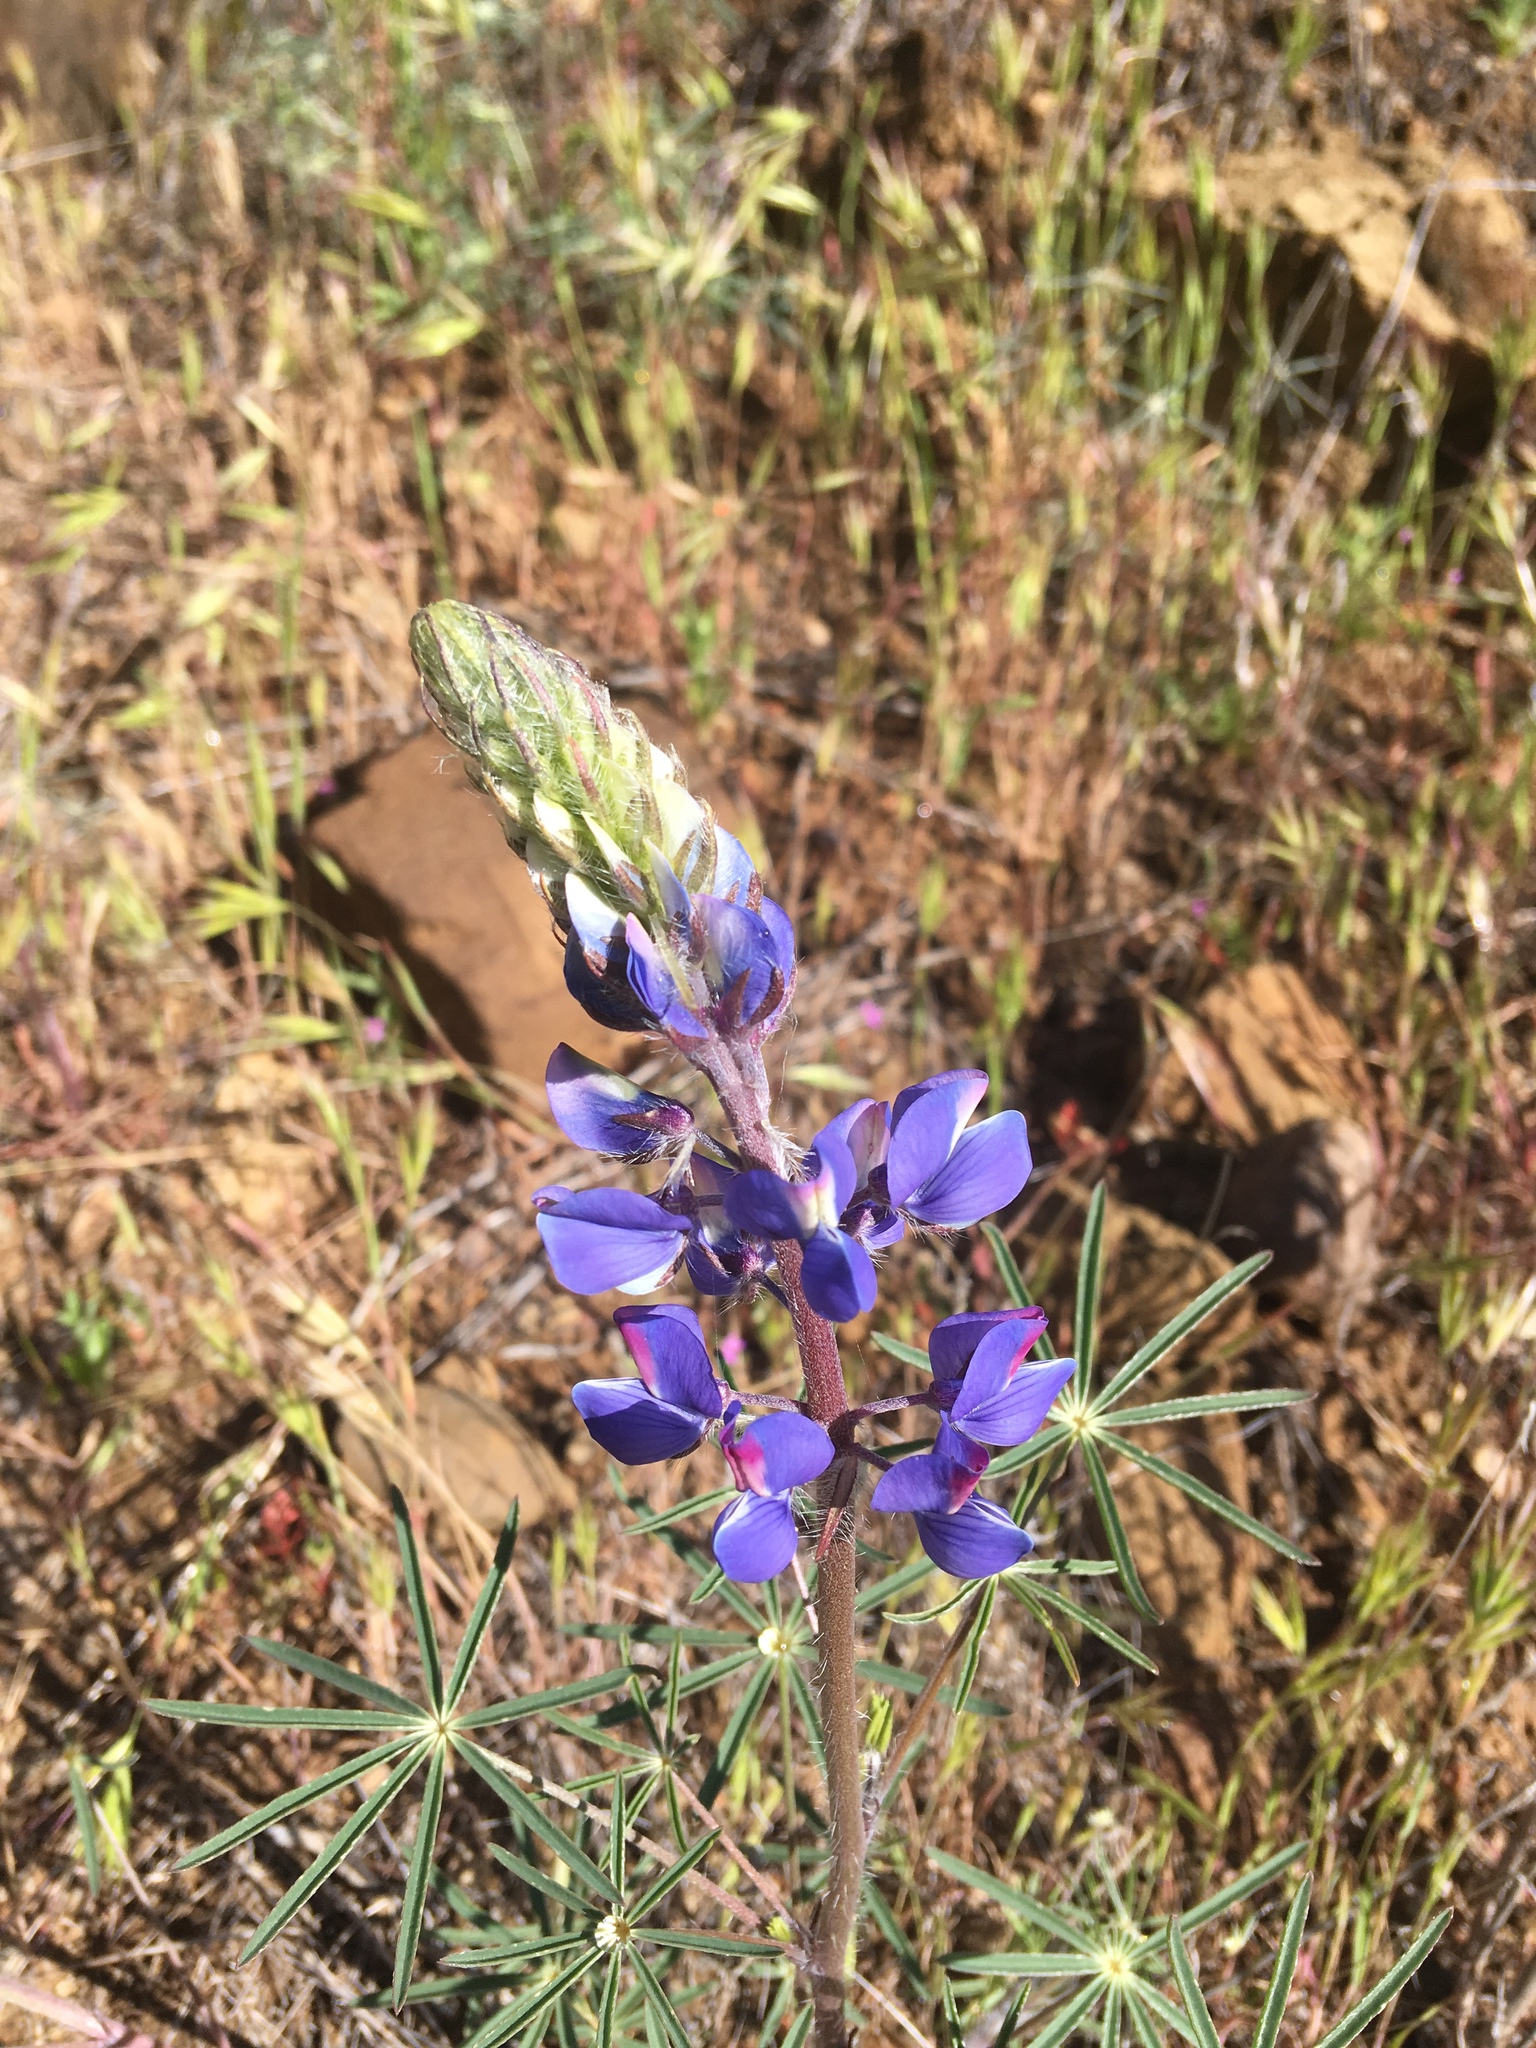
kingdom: Plantae
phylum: Tracheophyta
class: Magnoliopsida
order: Fabales
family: Fabaceae
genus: Lupinus
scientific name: Lupinus benthamii
